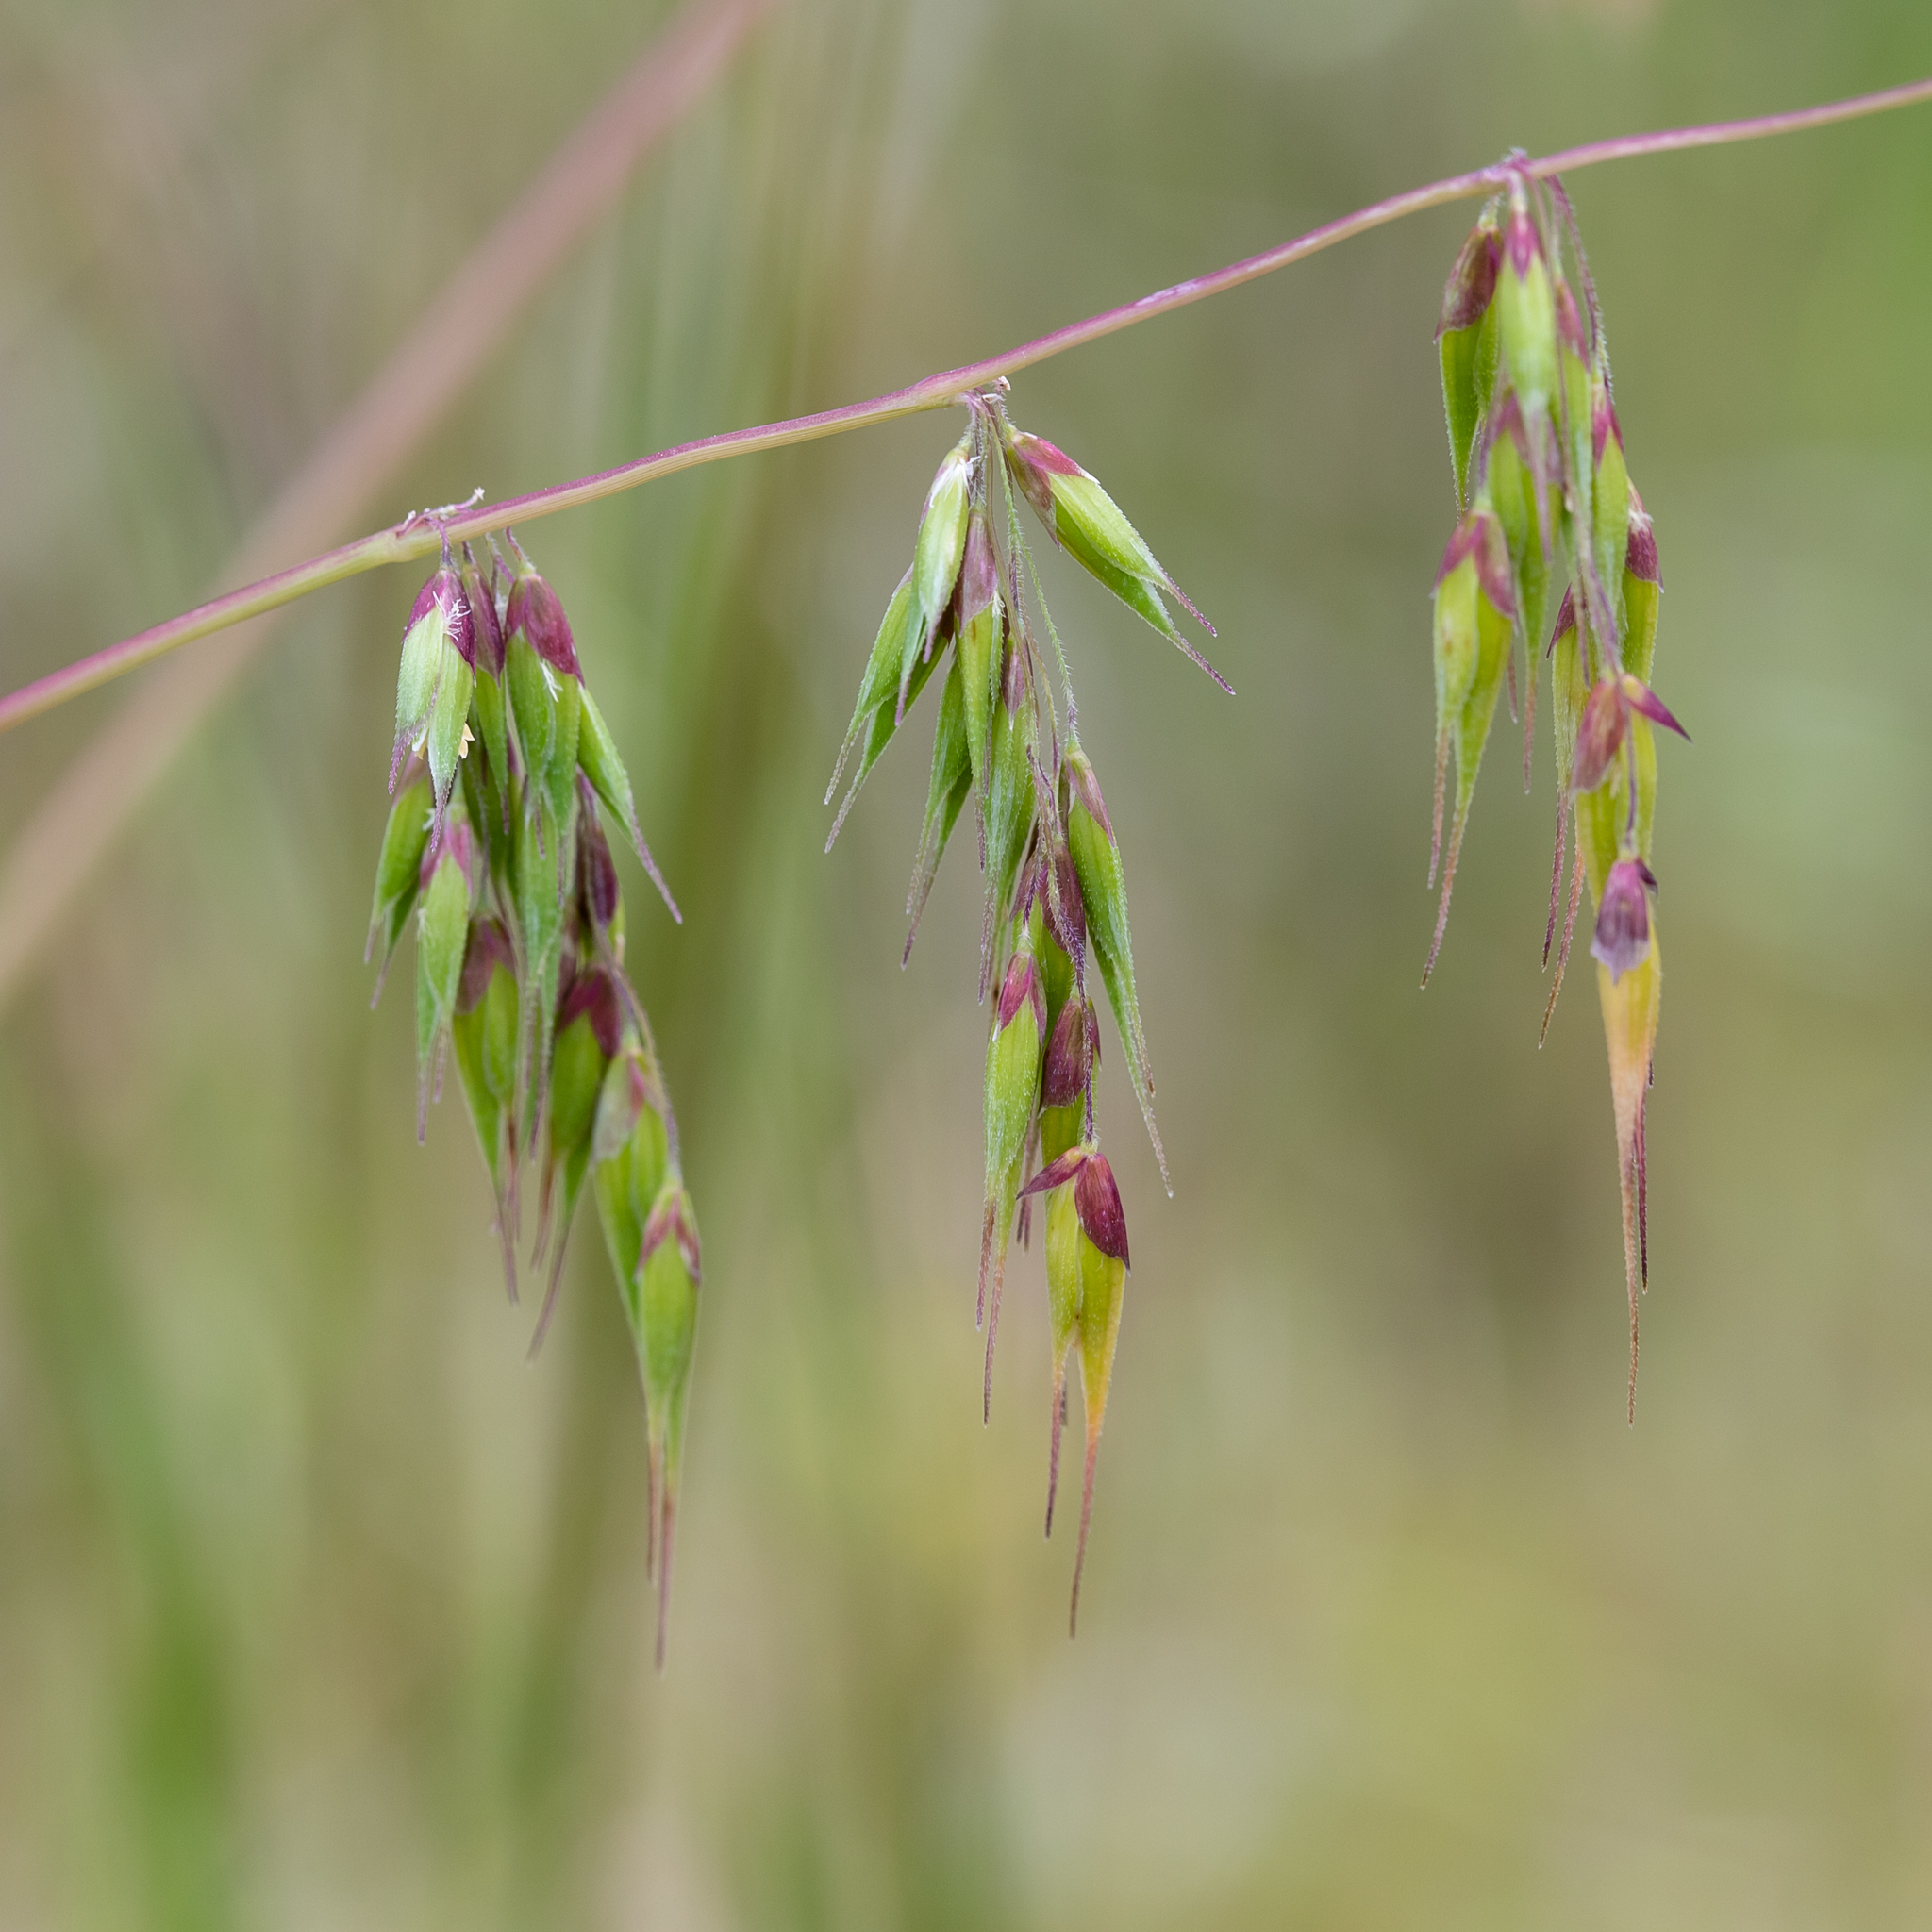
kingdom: Plantae
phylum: Tracheophyta
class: Liliopsida
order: Poales
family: Poaceae
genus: Ehrharta
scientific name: Ehrharta longiflora
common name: Longflowered veldtgrass
